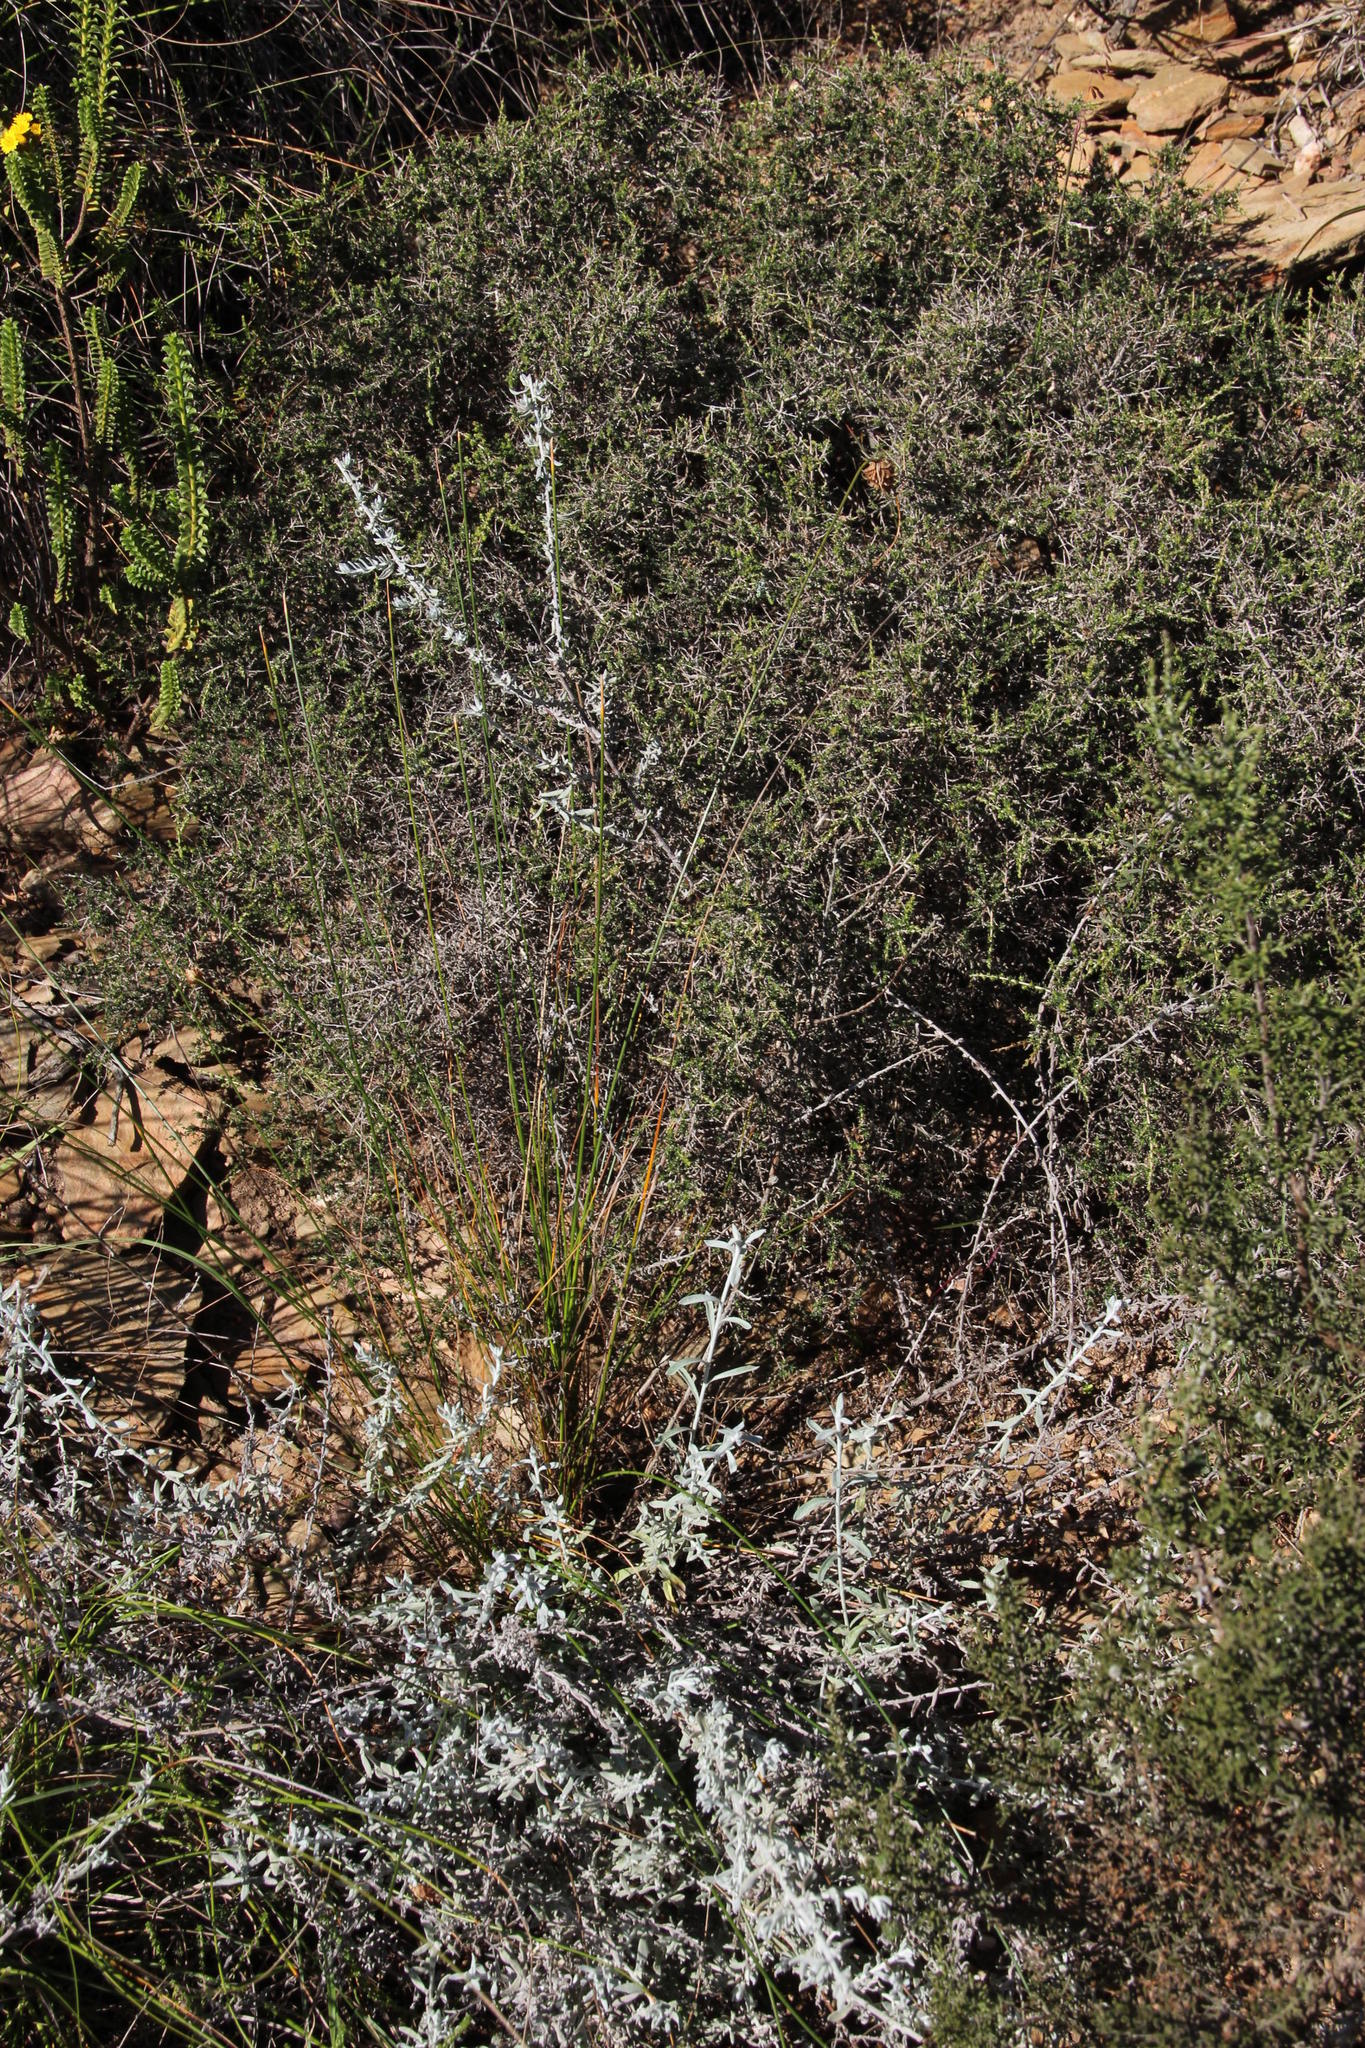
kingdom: Plantae
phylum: Tracheophyta
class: Liliopsida
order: Poales
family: Cyperaceae
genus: Ficinia
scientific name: Ficinia nigrescens
